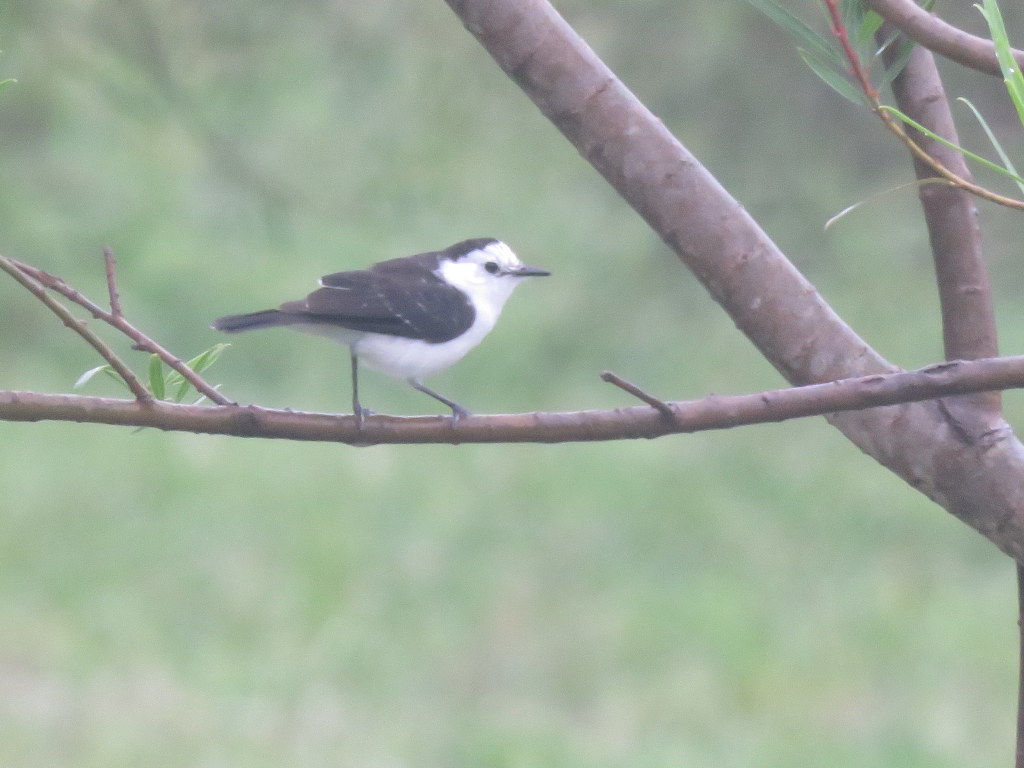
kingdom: Animalia
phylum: Chordata
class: Aves
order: Passeriformes
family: Tyrannidae
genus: Fluvicola
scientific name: Fluvicola pica
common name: Pied water-tyrant
